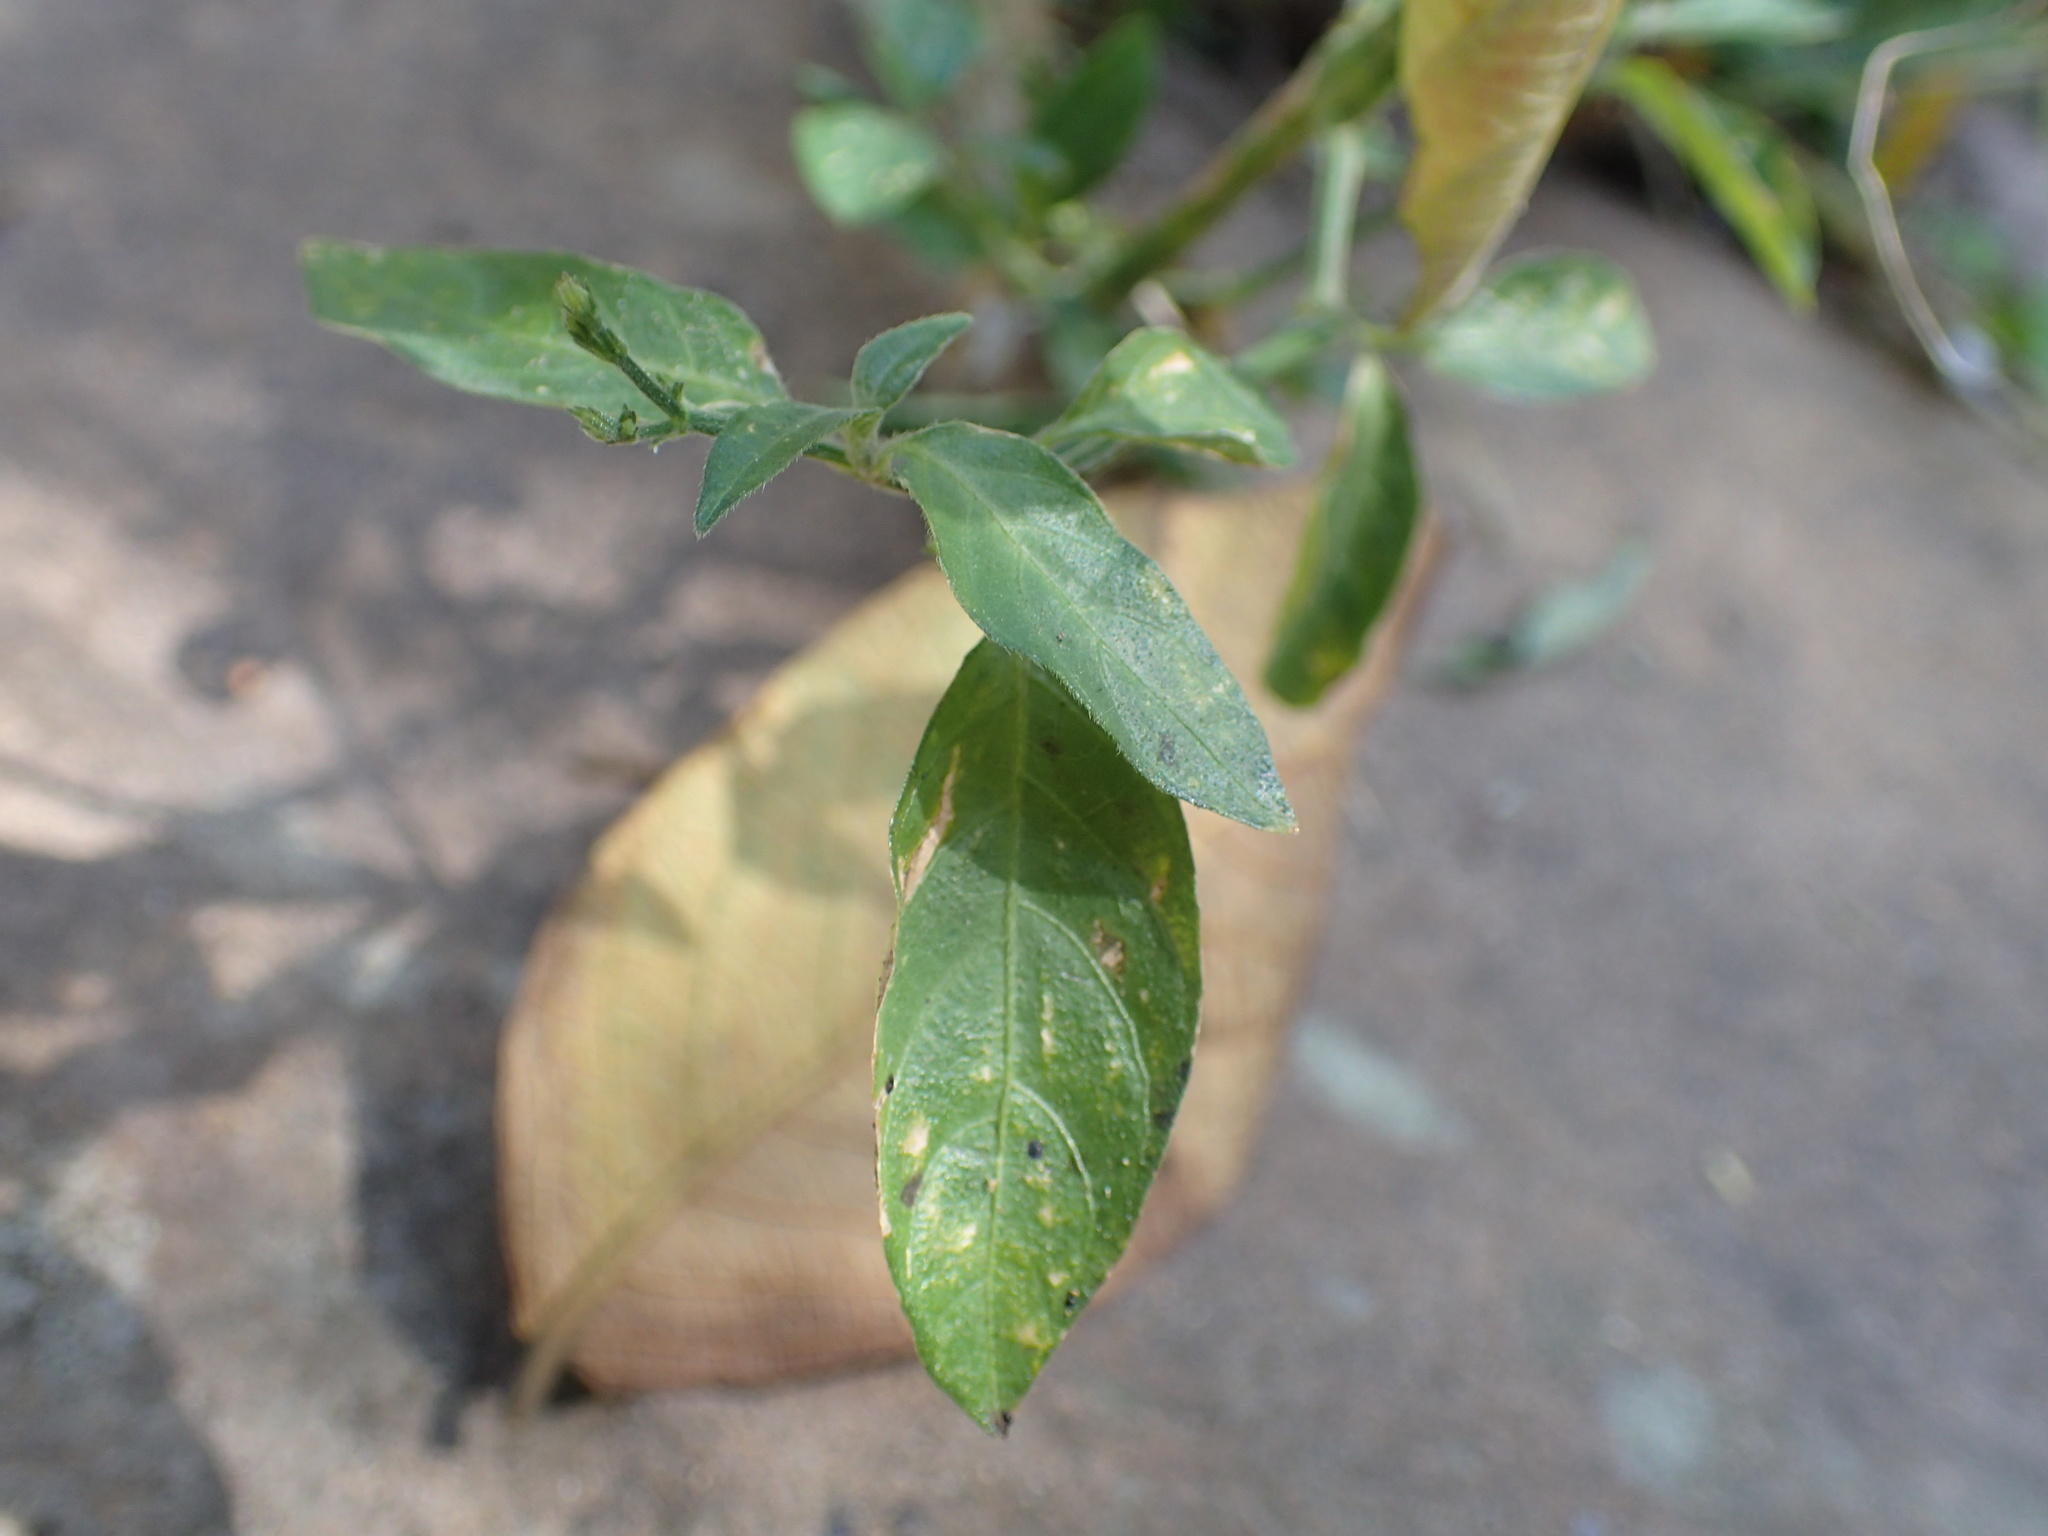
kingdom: Plantae
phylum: Tracheophyta
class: Magnoliopsida
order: Lamiales
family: Acanthaceae
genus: Rhinacanthus
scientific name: Rhinacanthus latilabiatus
